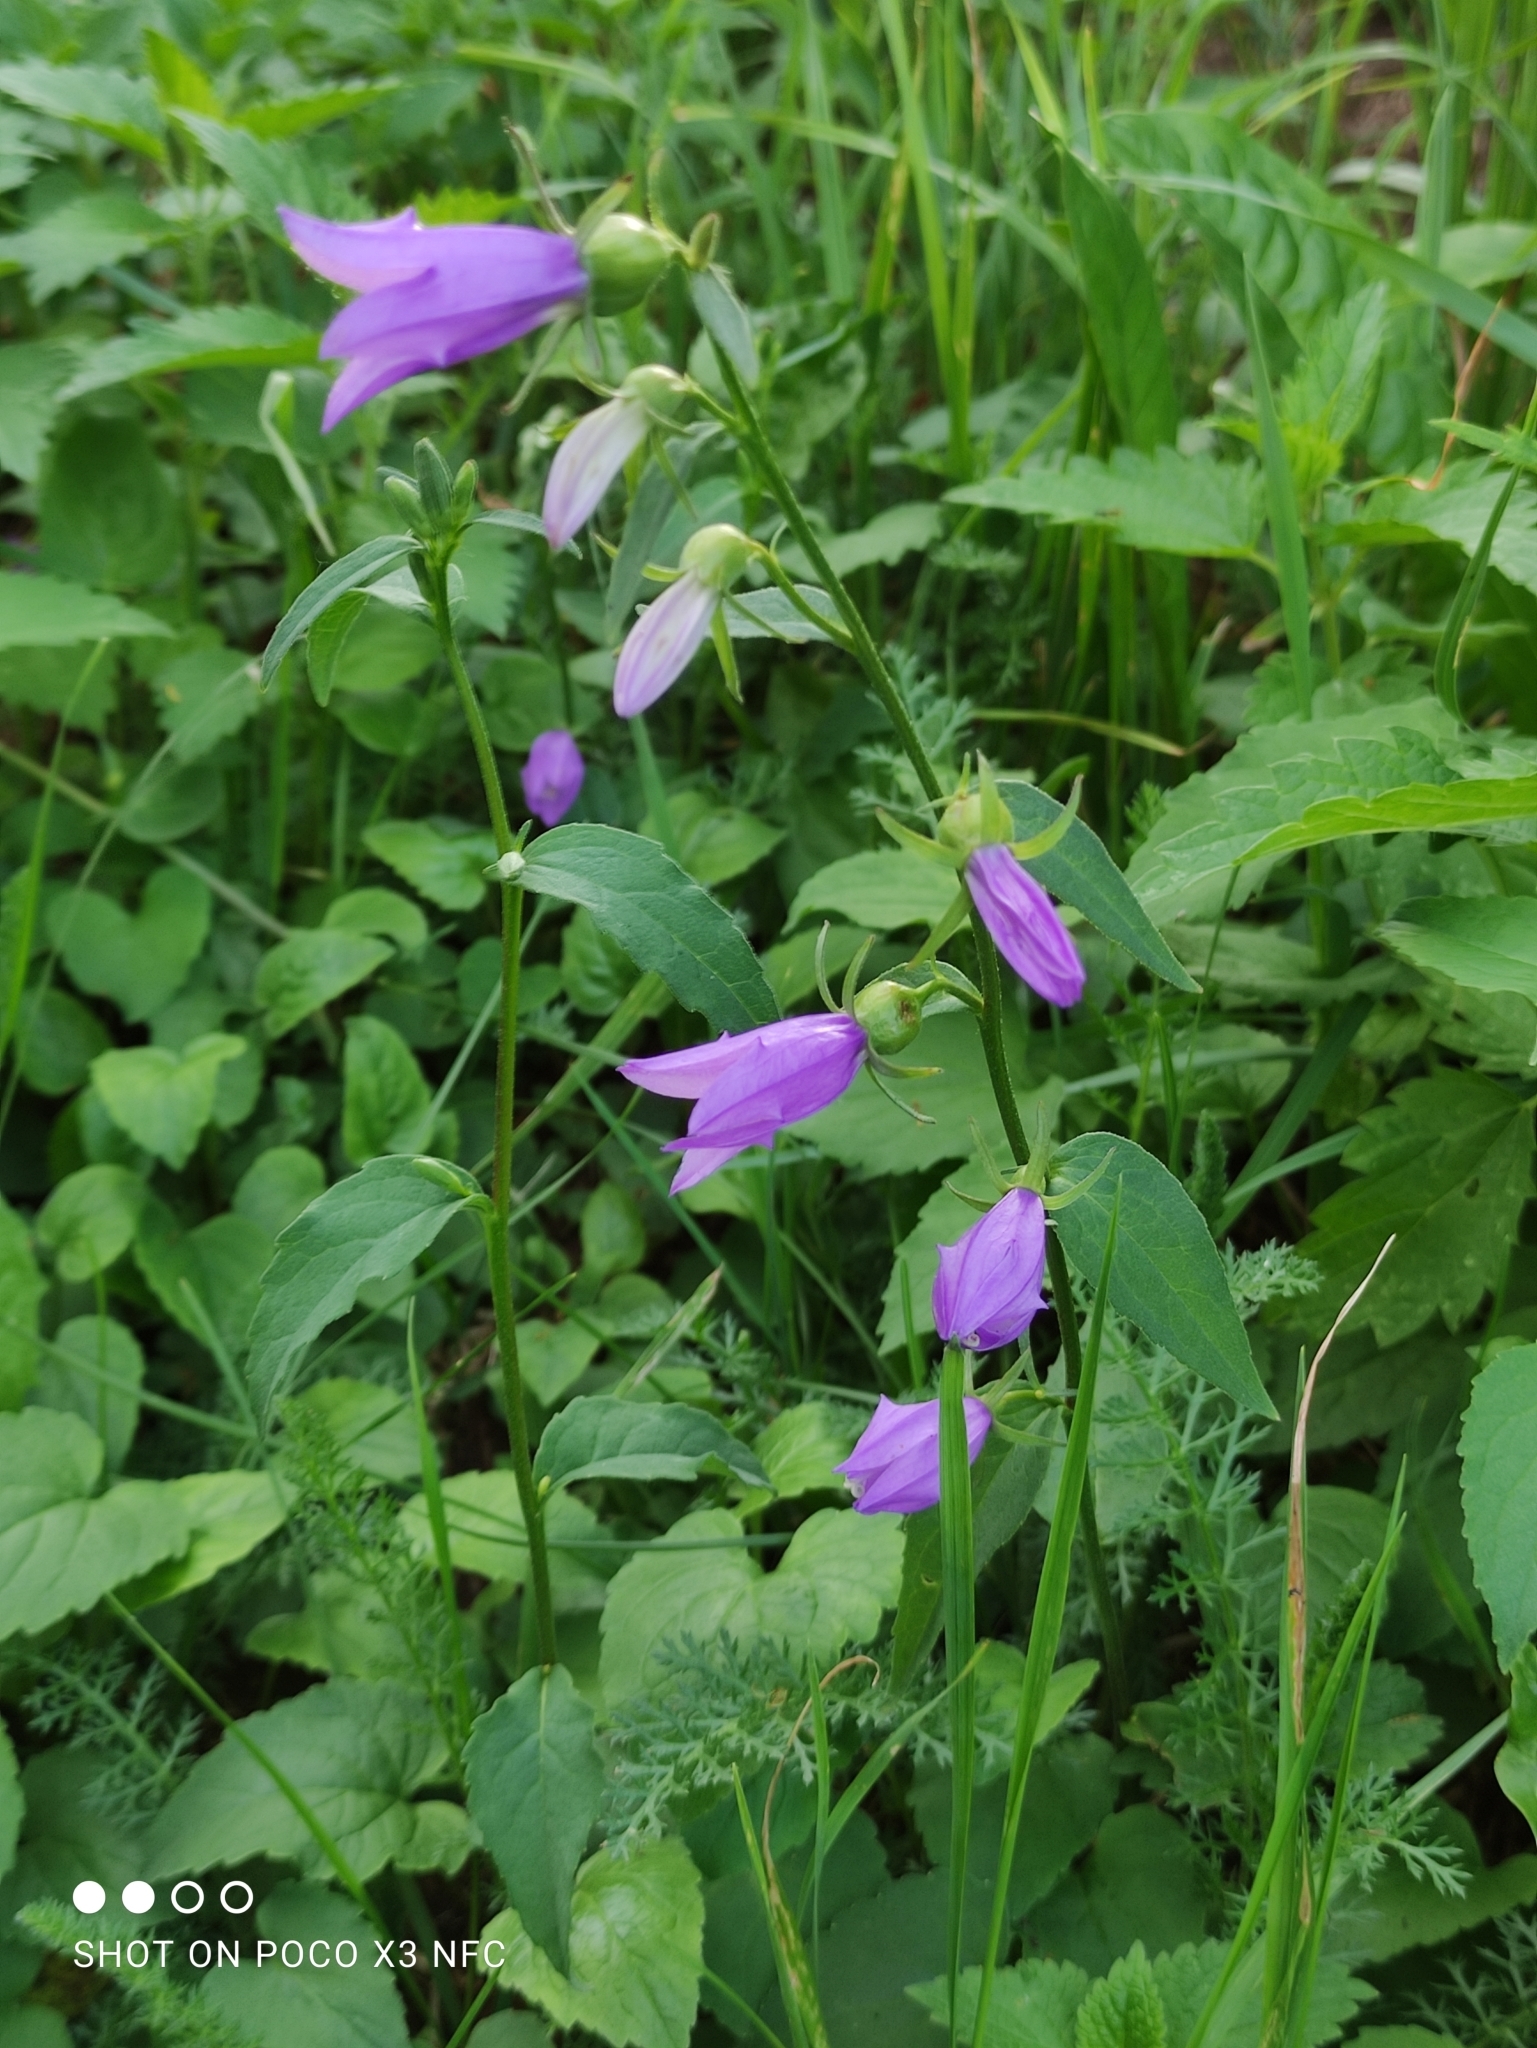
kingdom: Plantae
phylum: Tracheophyta
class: Magnoliopsida
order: Asterales
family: Campanulaceae
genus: Campanula
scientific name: Campanula rapunculoides
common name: Creeping bellflower
